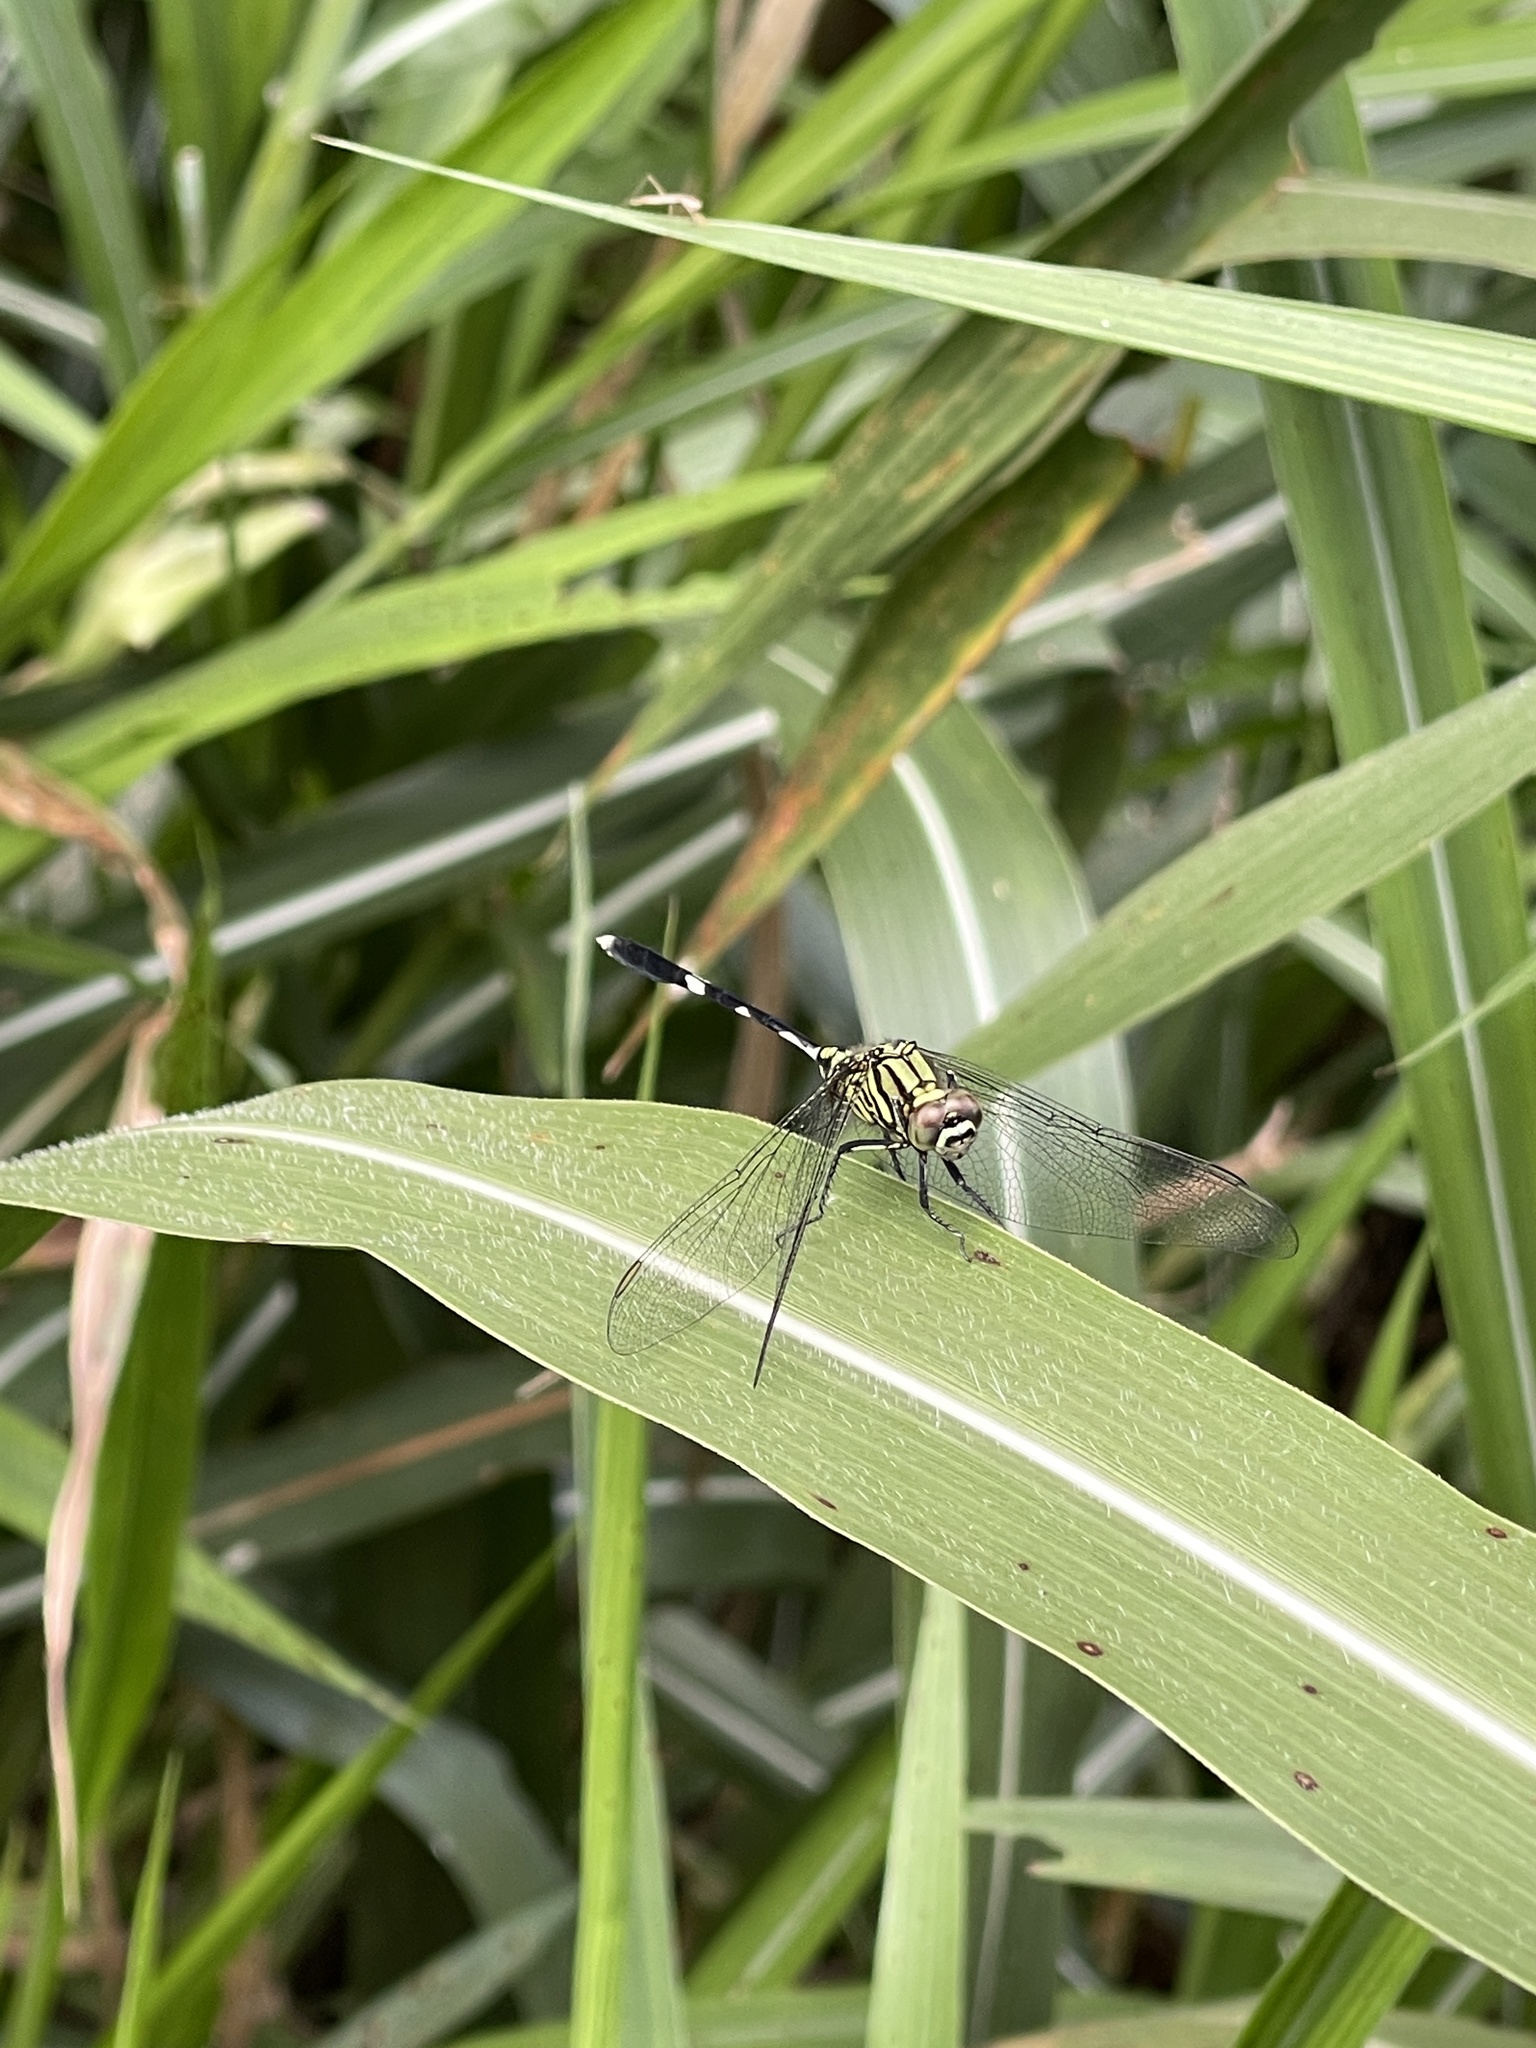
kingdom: Animalia
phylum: Arthropoda
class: Insecta
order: Odonata
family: Libellulidae
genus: Orthetrum
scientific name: Orthetrum sabina
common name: Slender skimmer
